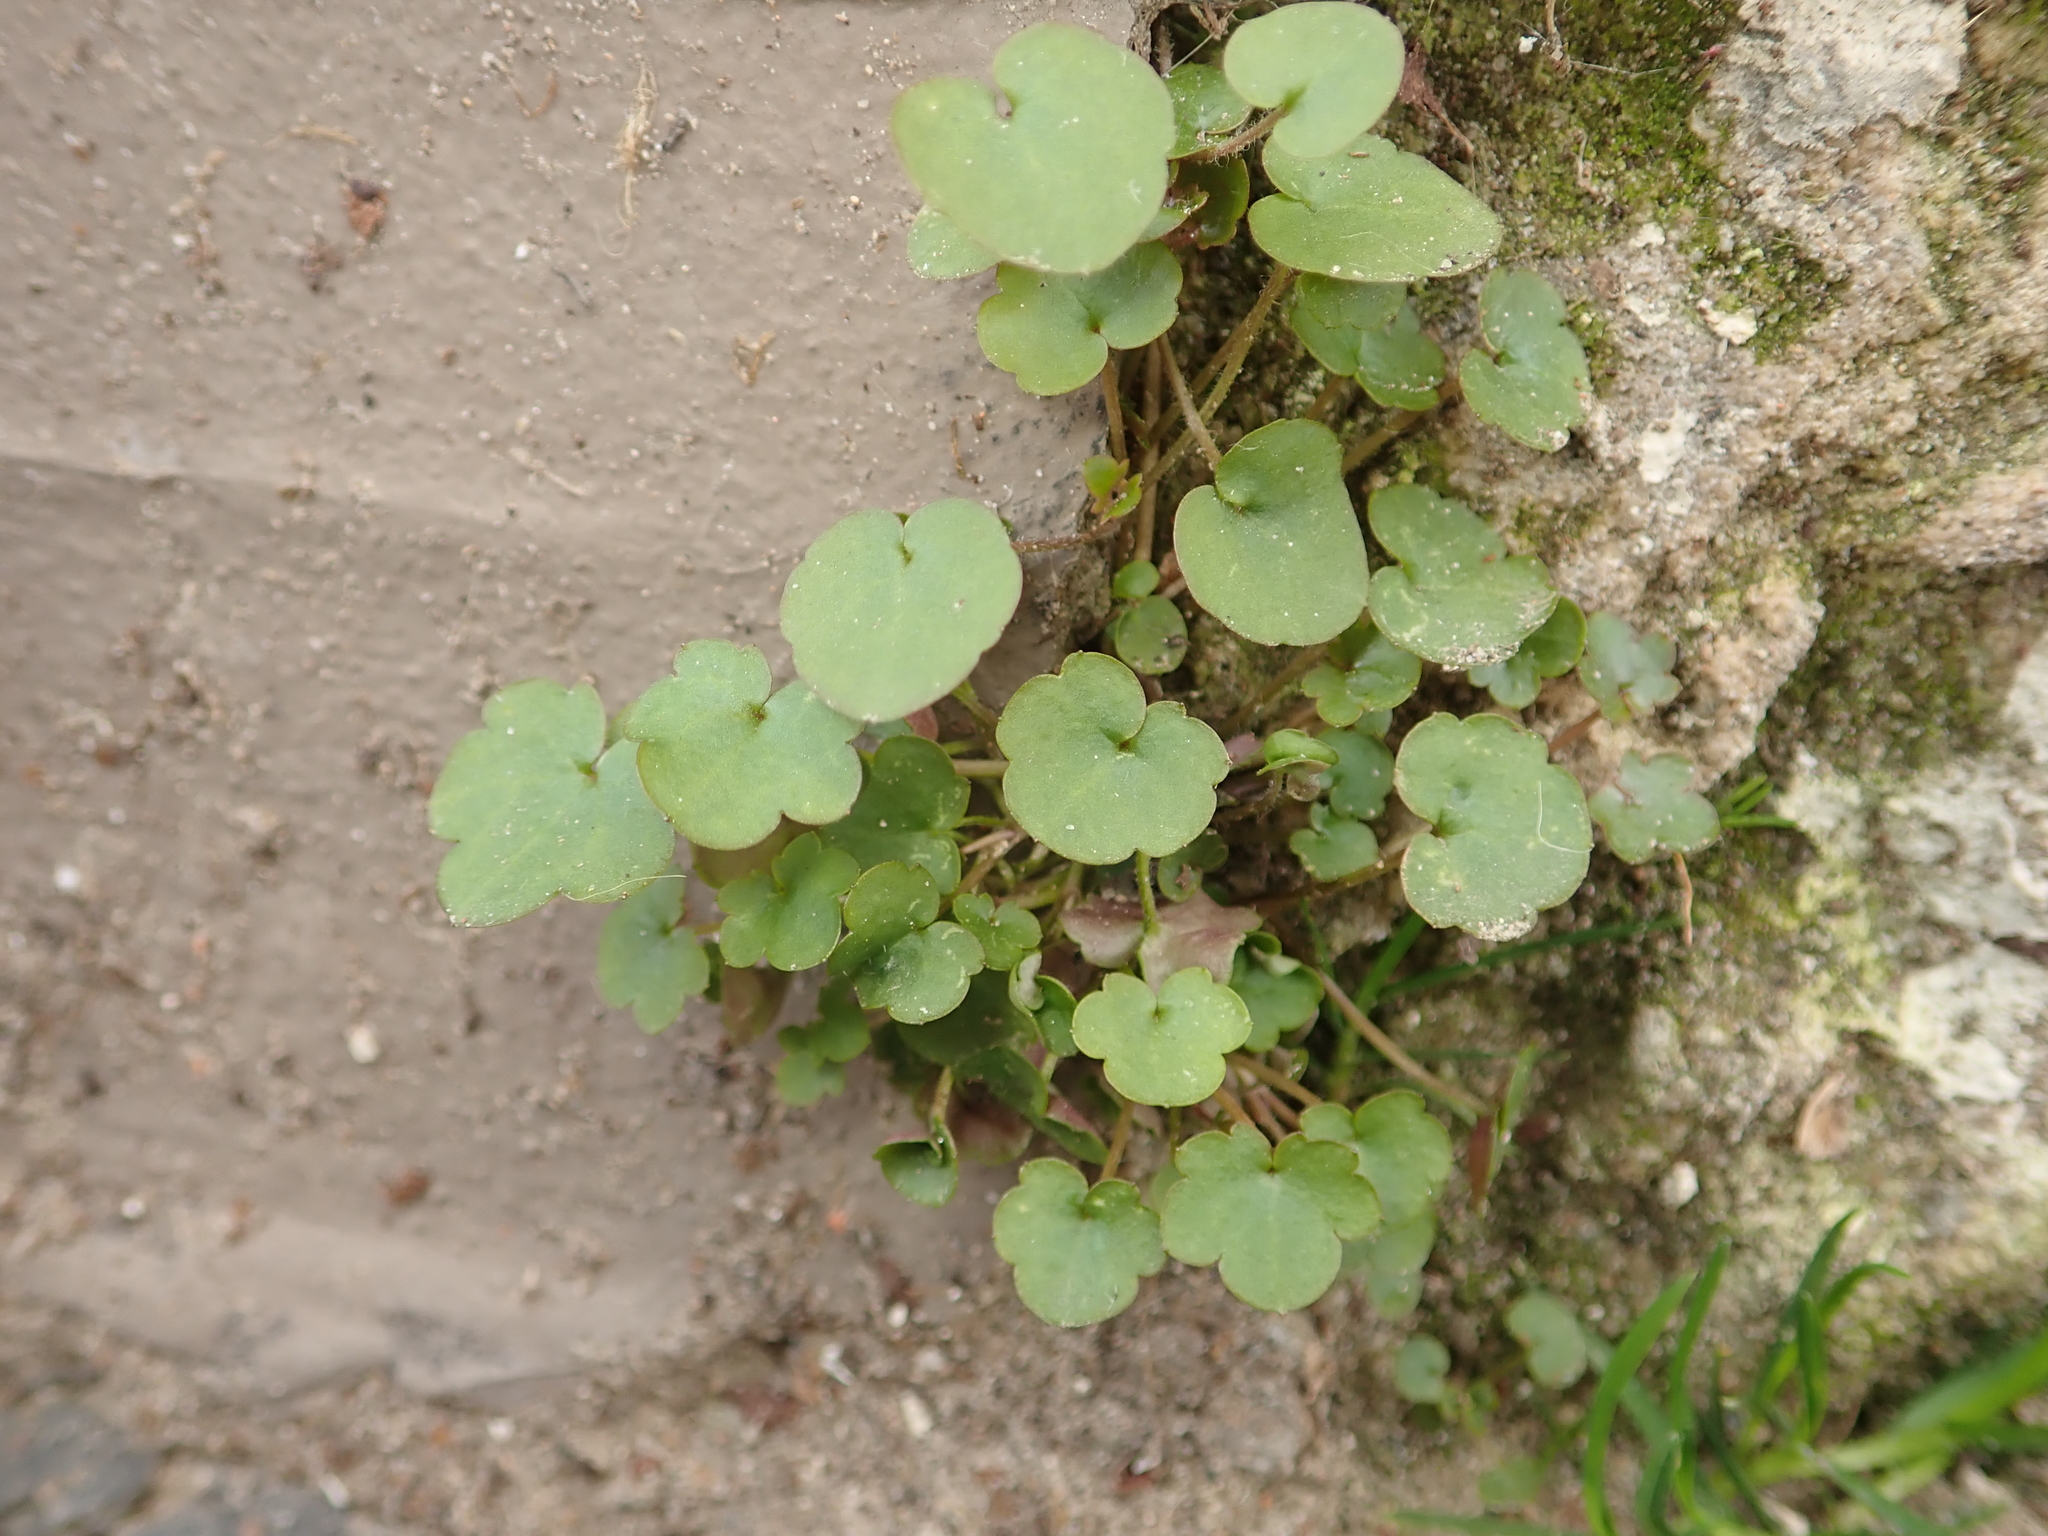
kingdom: Plantae
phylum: Tracheophyta
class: Magnoliopsida
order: Lamiales
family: Plantaginaceae
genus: Cymbalaria
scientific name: Cymbalaria muralis
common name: Ivy-leaved toadflax
